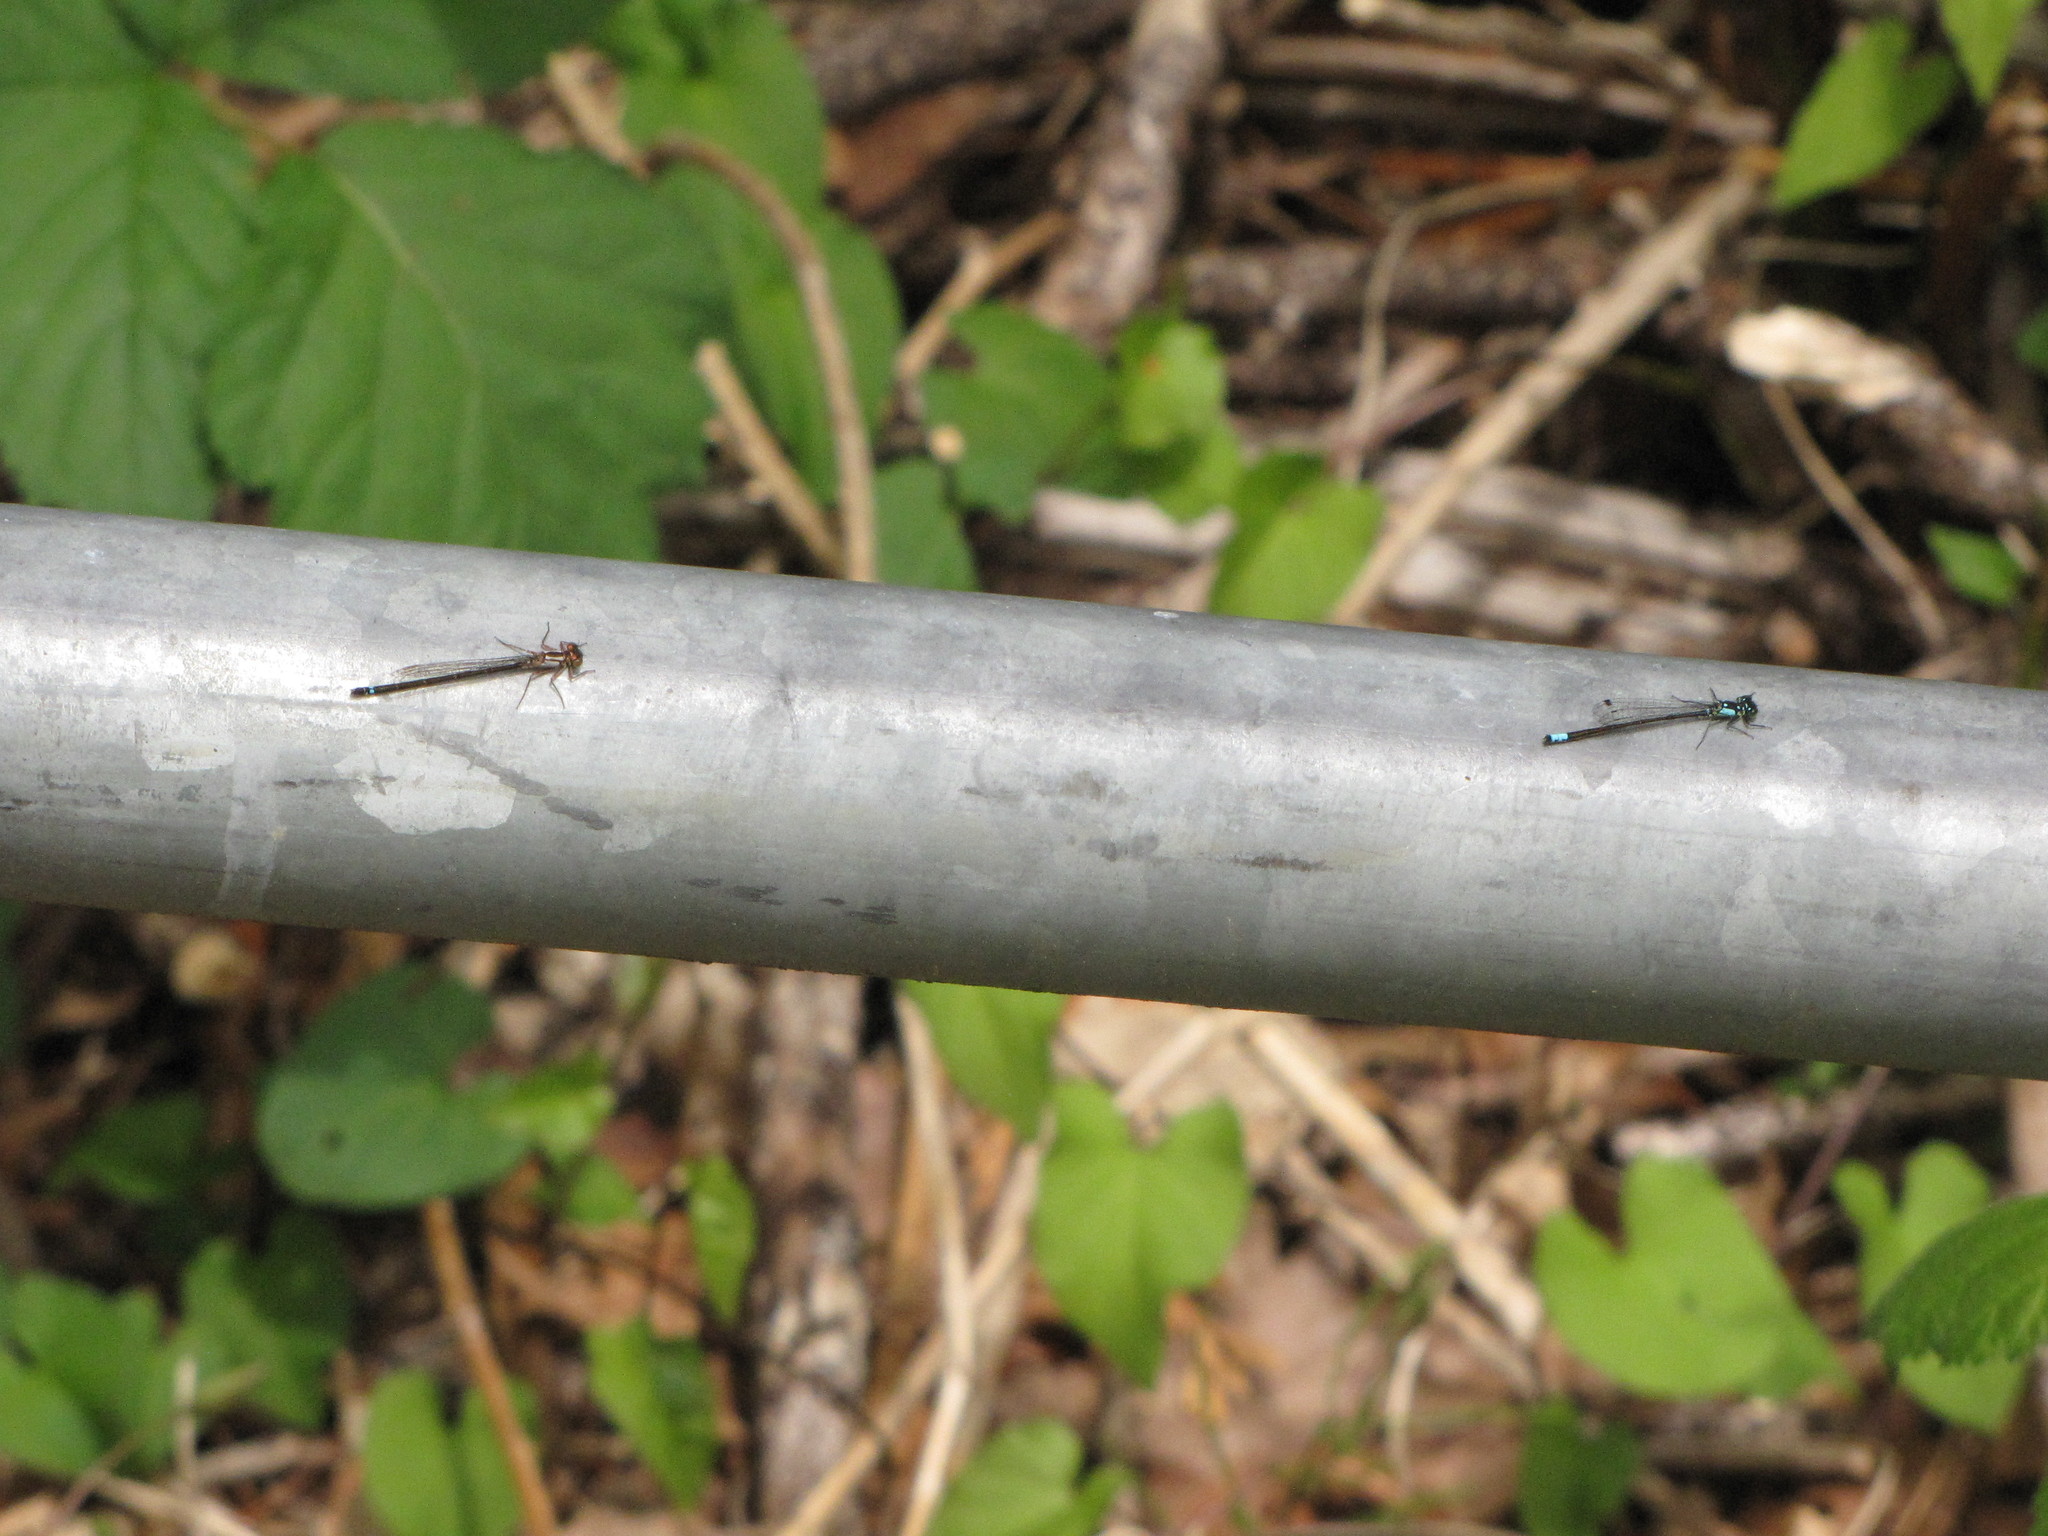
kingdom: Animalia
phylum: Arthropoda
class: Insecta
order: Odonata
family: Coenagrionidae
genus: Ischnura
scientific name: Ischnura cervula
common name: Pacific forktail
